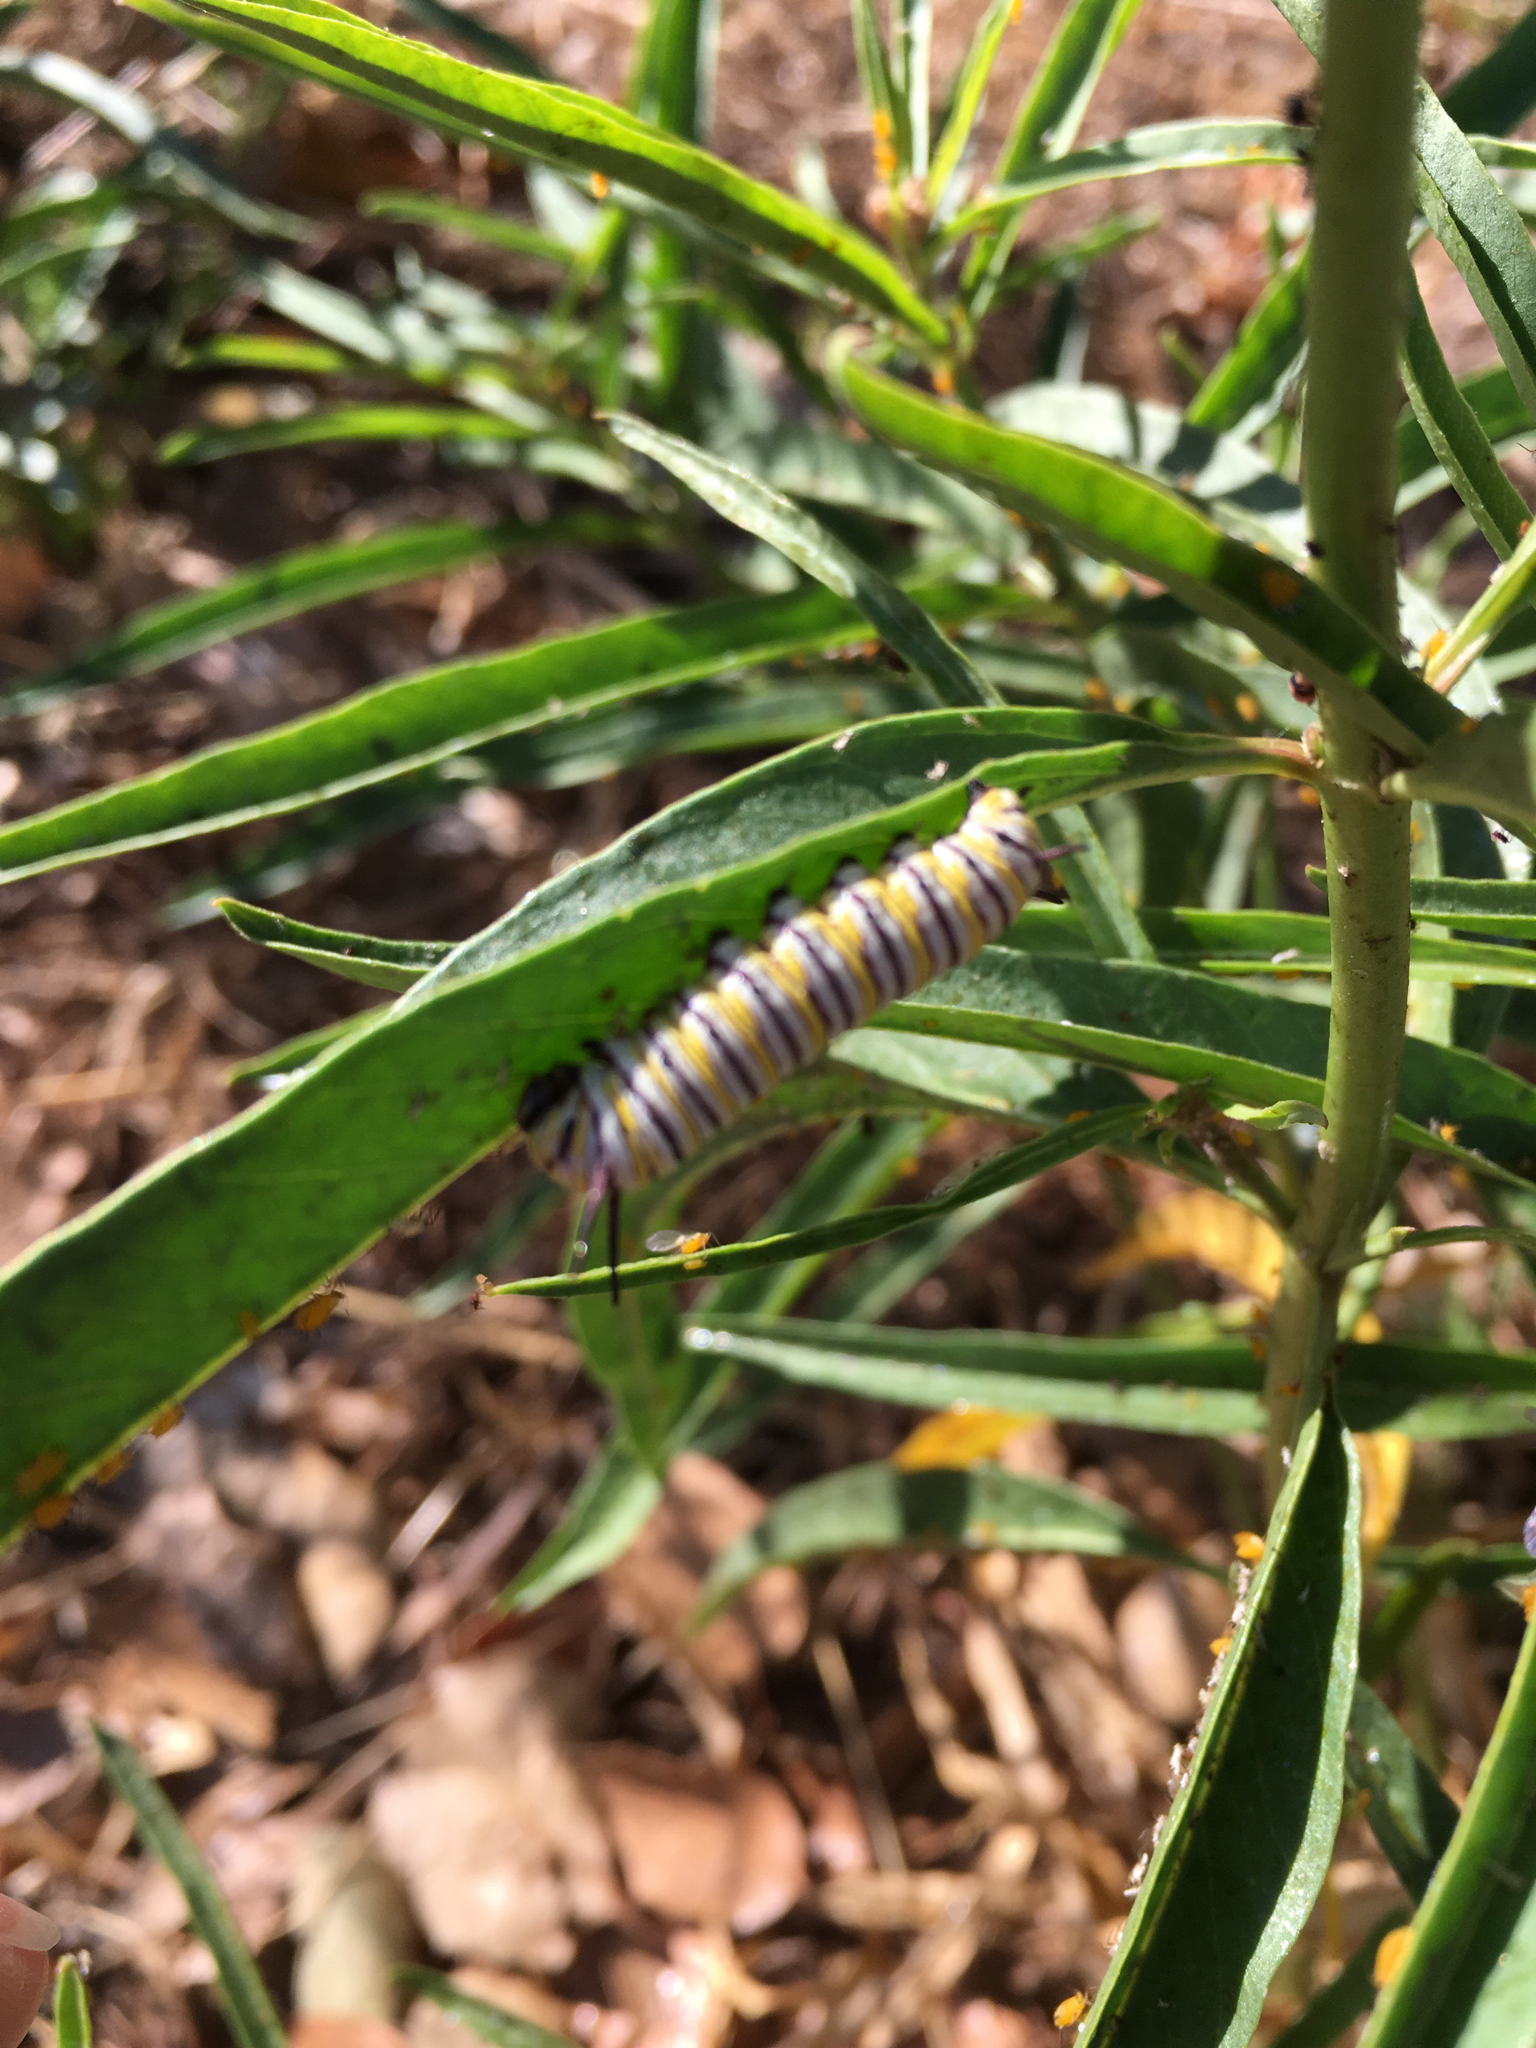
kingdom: Animalia
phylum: Arthropoda
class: Insecta
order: Lepidoptera
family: Nymphalidae
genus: Danaus
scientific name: Danaus plexippus
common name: Monarch
